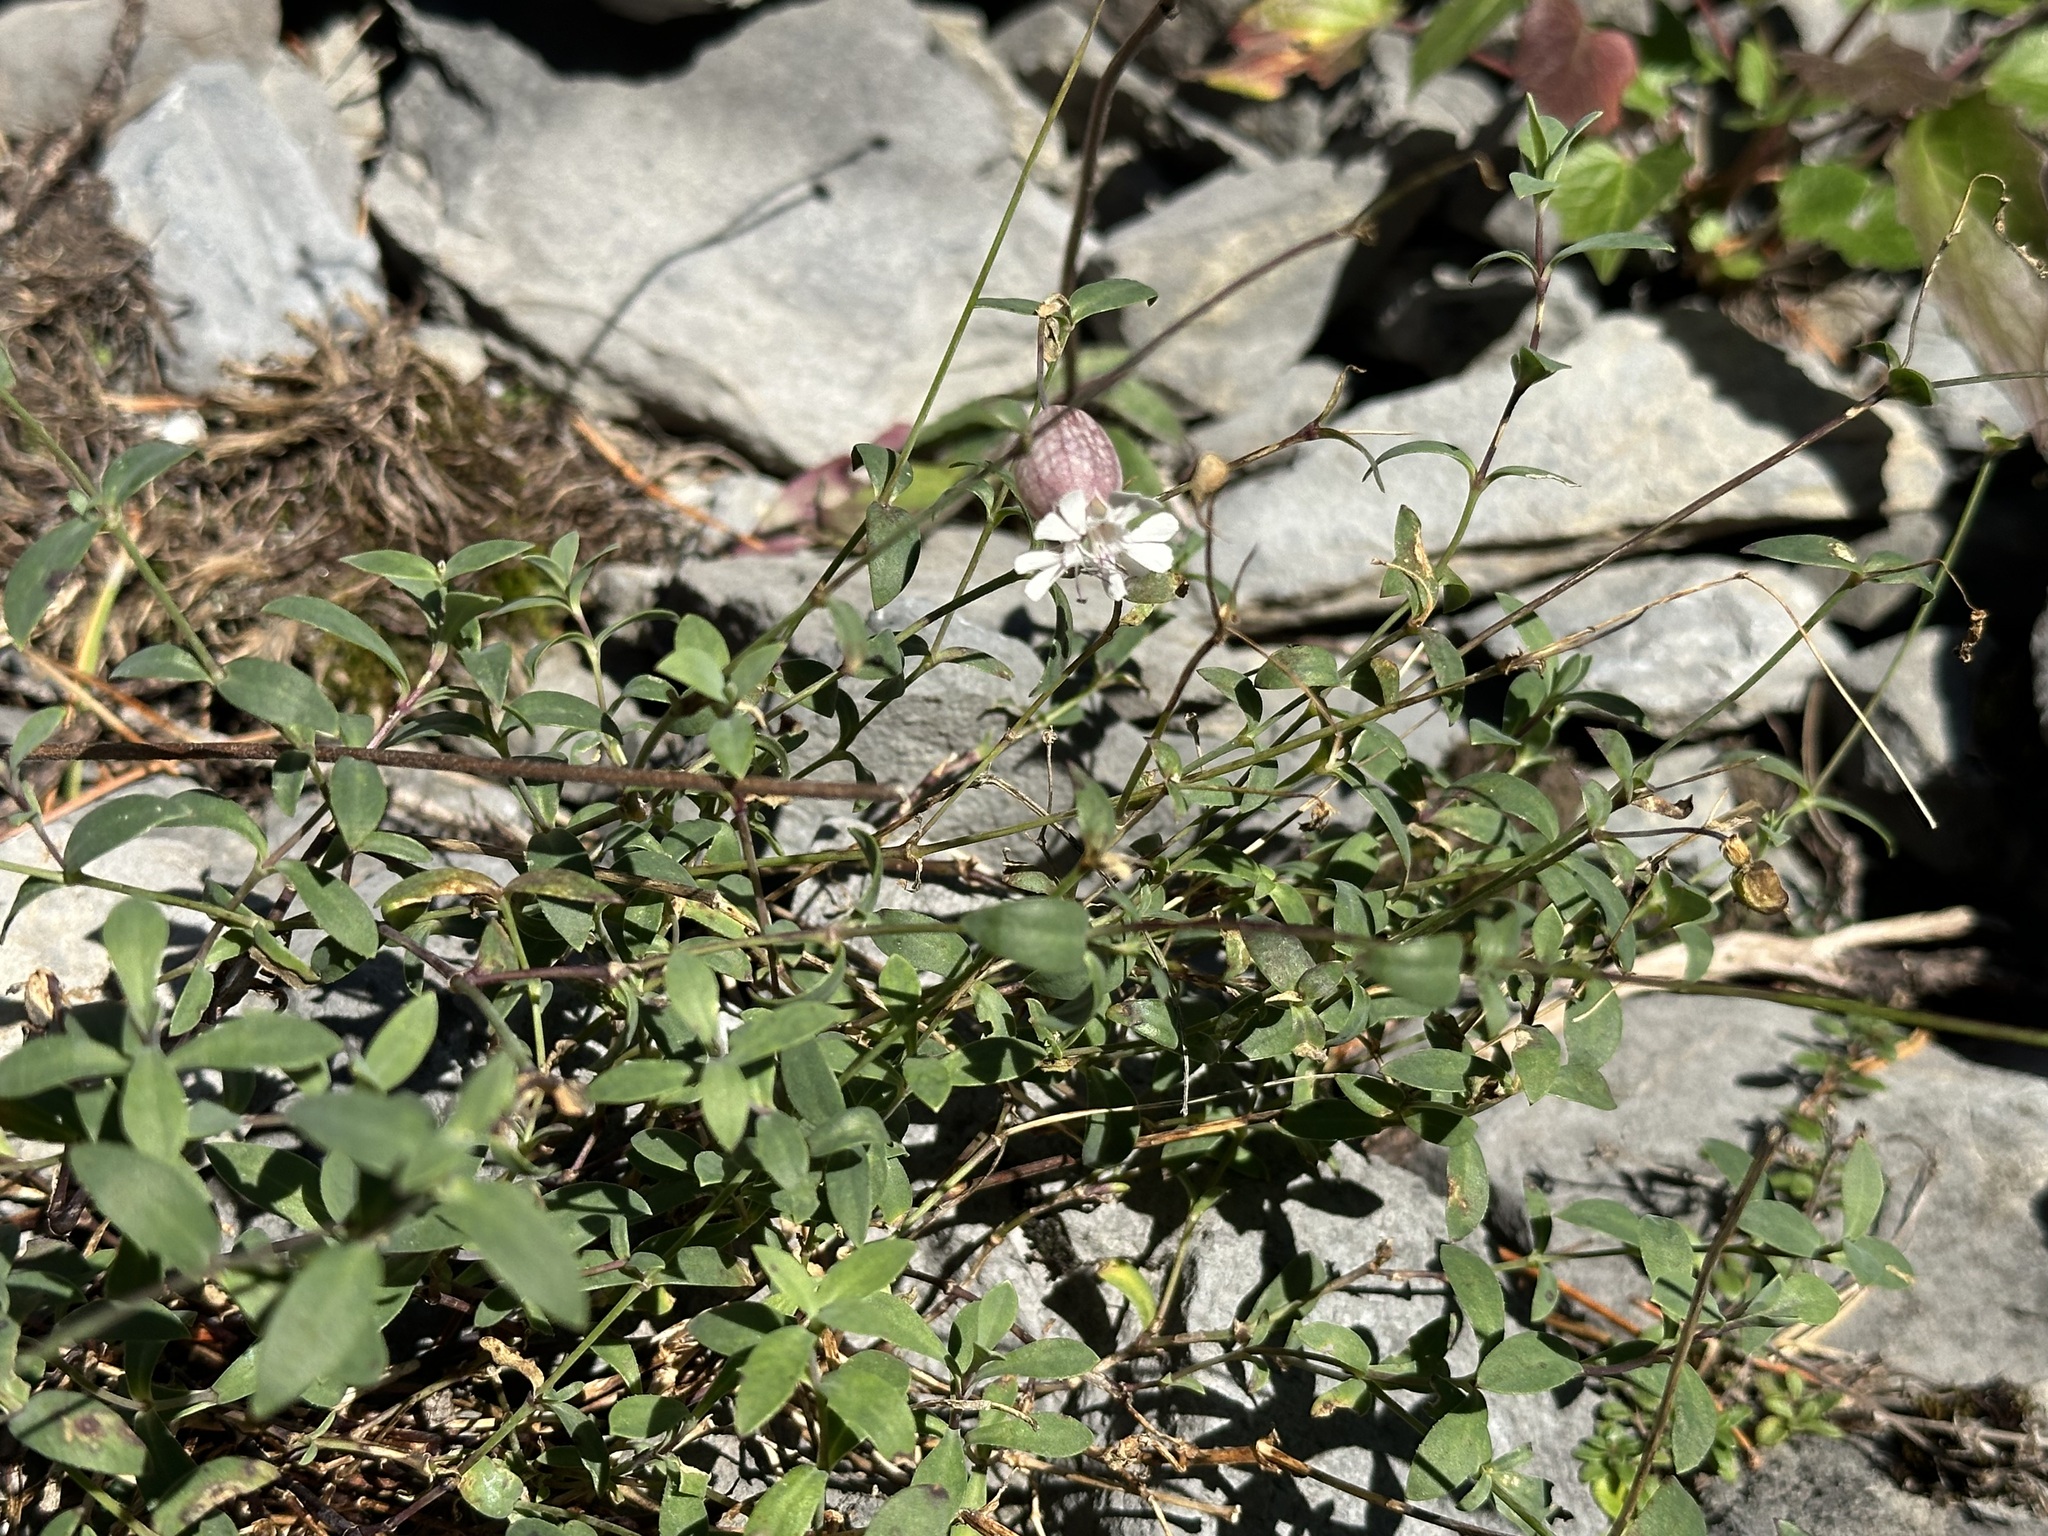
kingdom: Plantae
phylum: Tracheophyta
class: Magnoliopsida
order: Caryophyllales
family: Caryophyllaceae
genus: Silene
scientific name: Silene vulgaris
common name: Bladder campion
